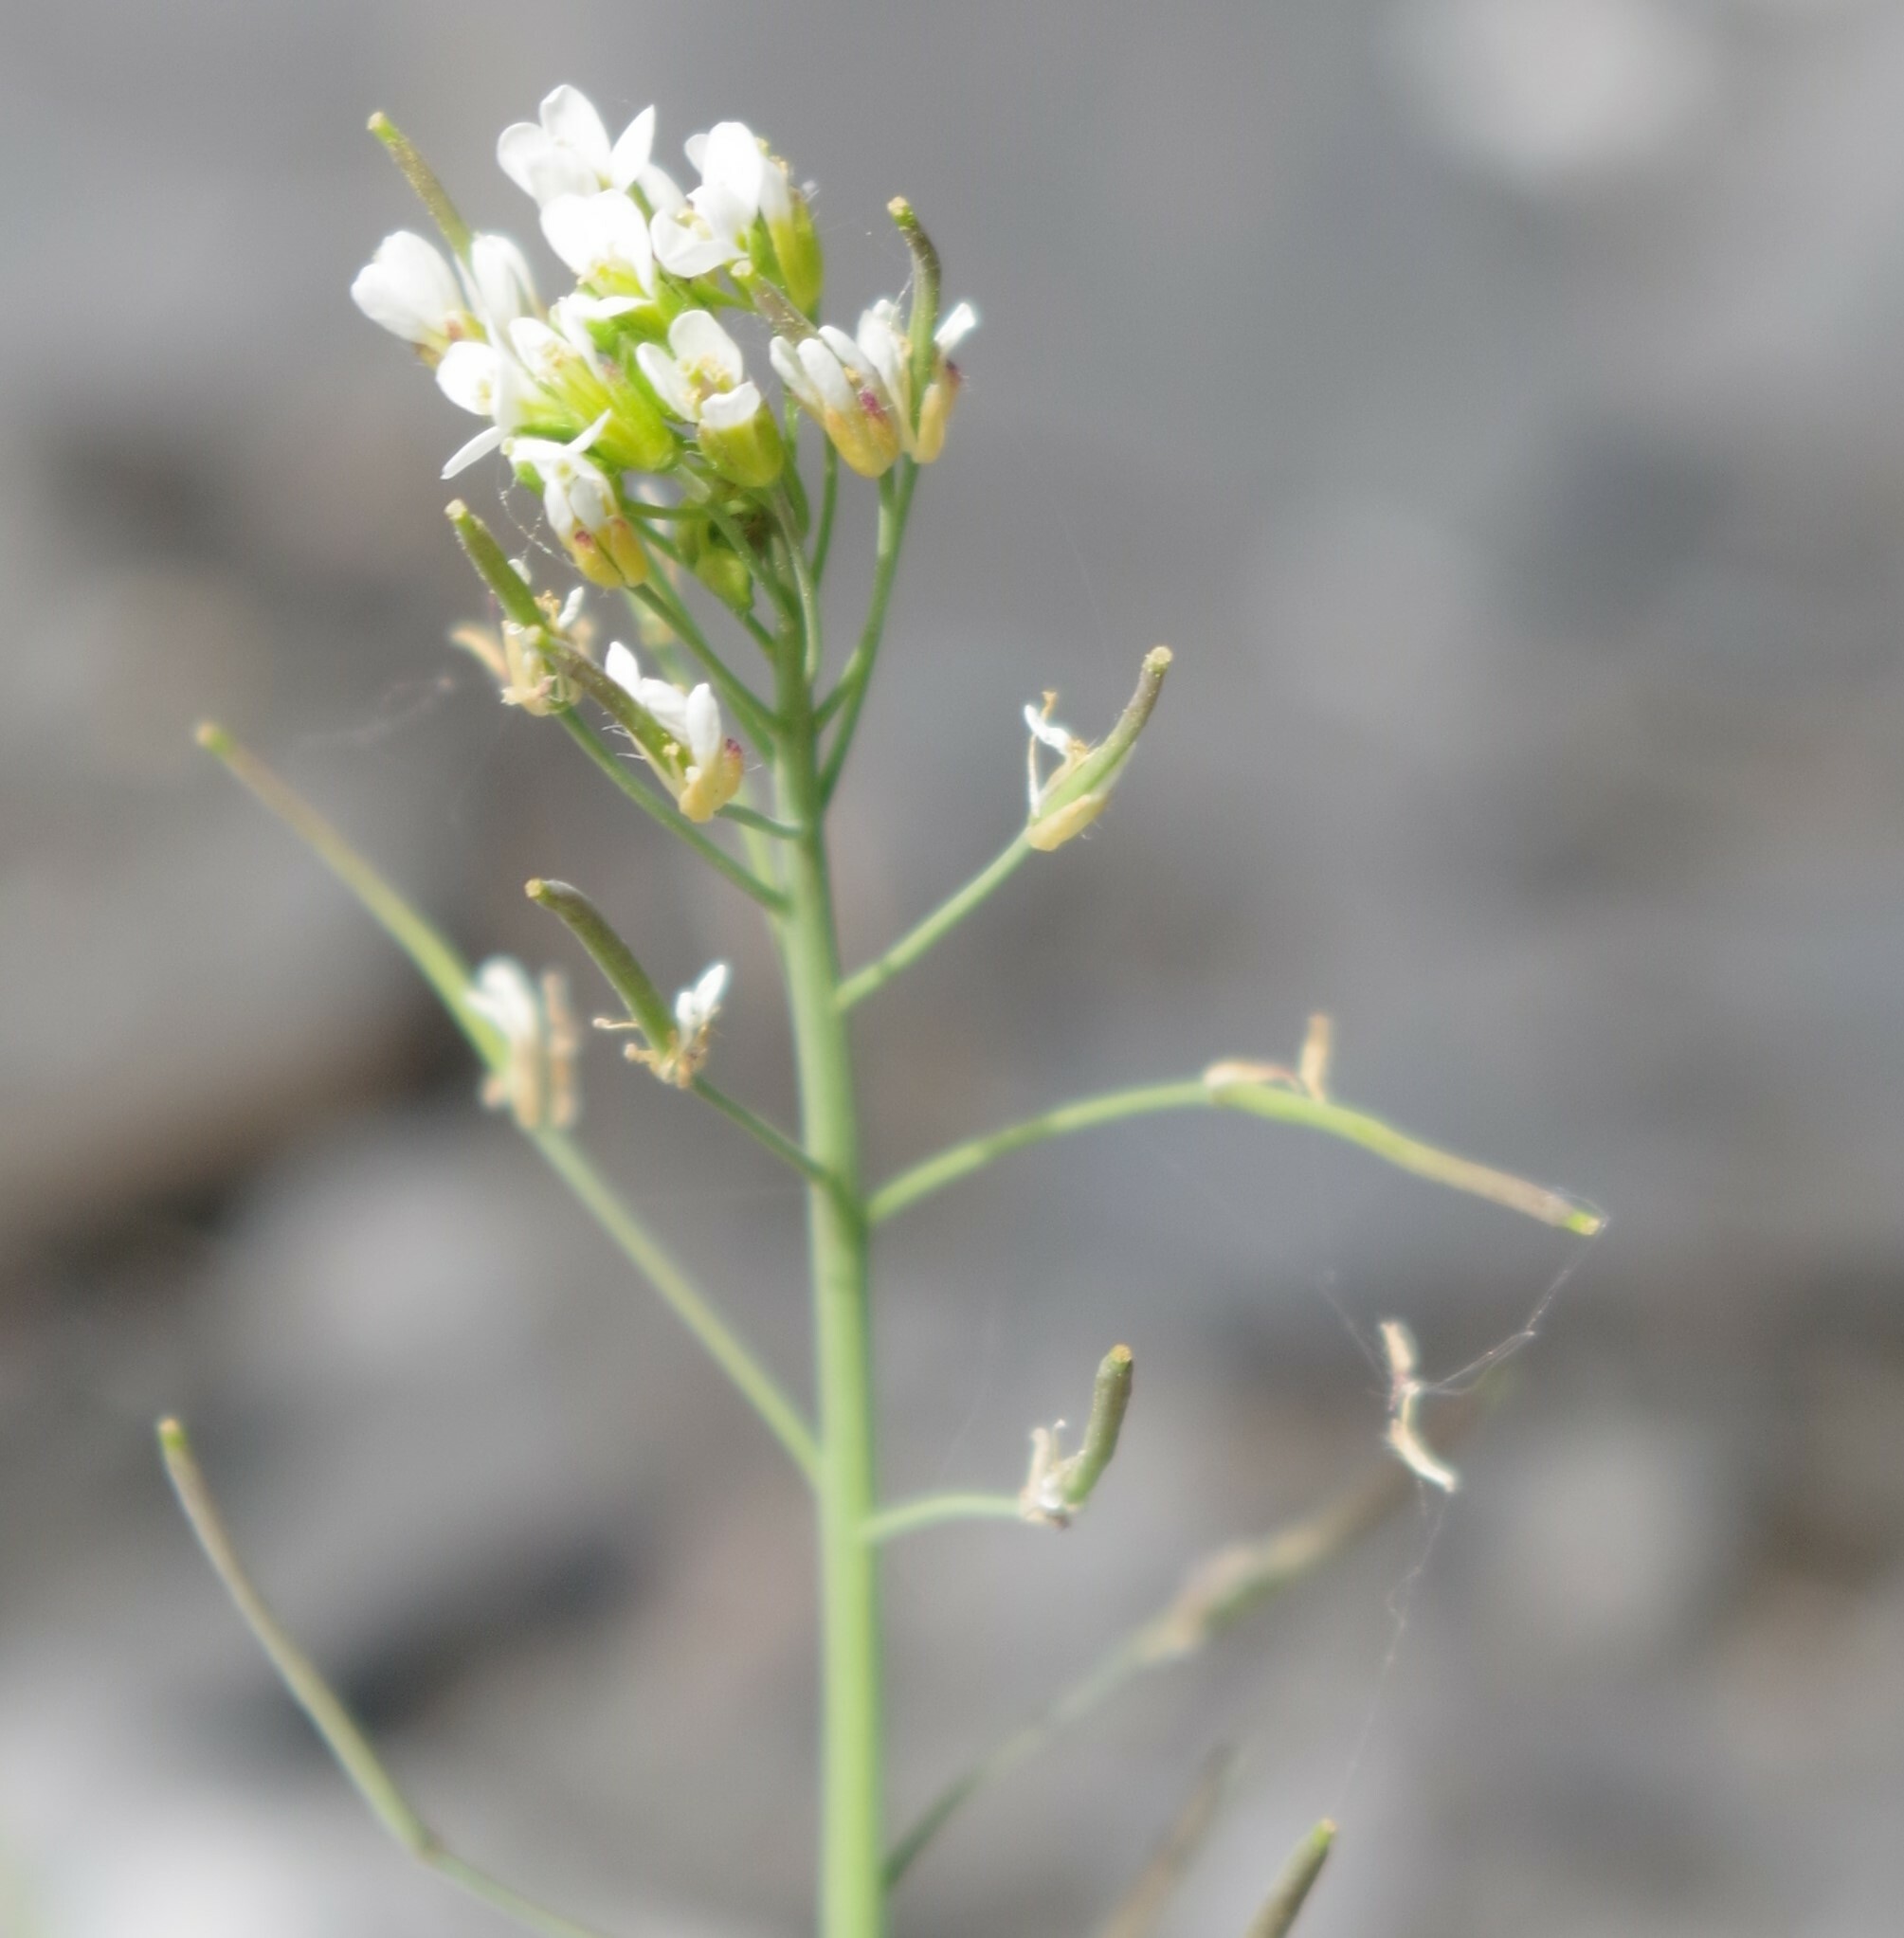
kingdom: Plantae
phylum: Tracheophyta
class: Magnoliopsida
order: Brassicales
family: Brassicaceae
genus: Arabidopsis
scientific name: Arabidopsis thaliana
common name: Thale cress
